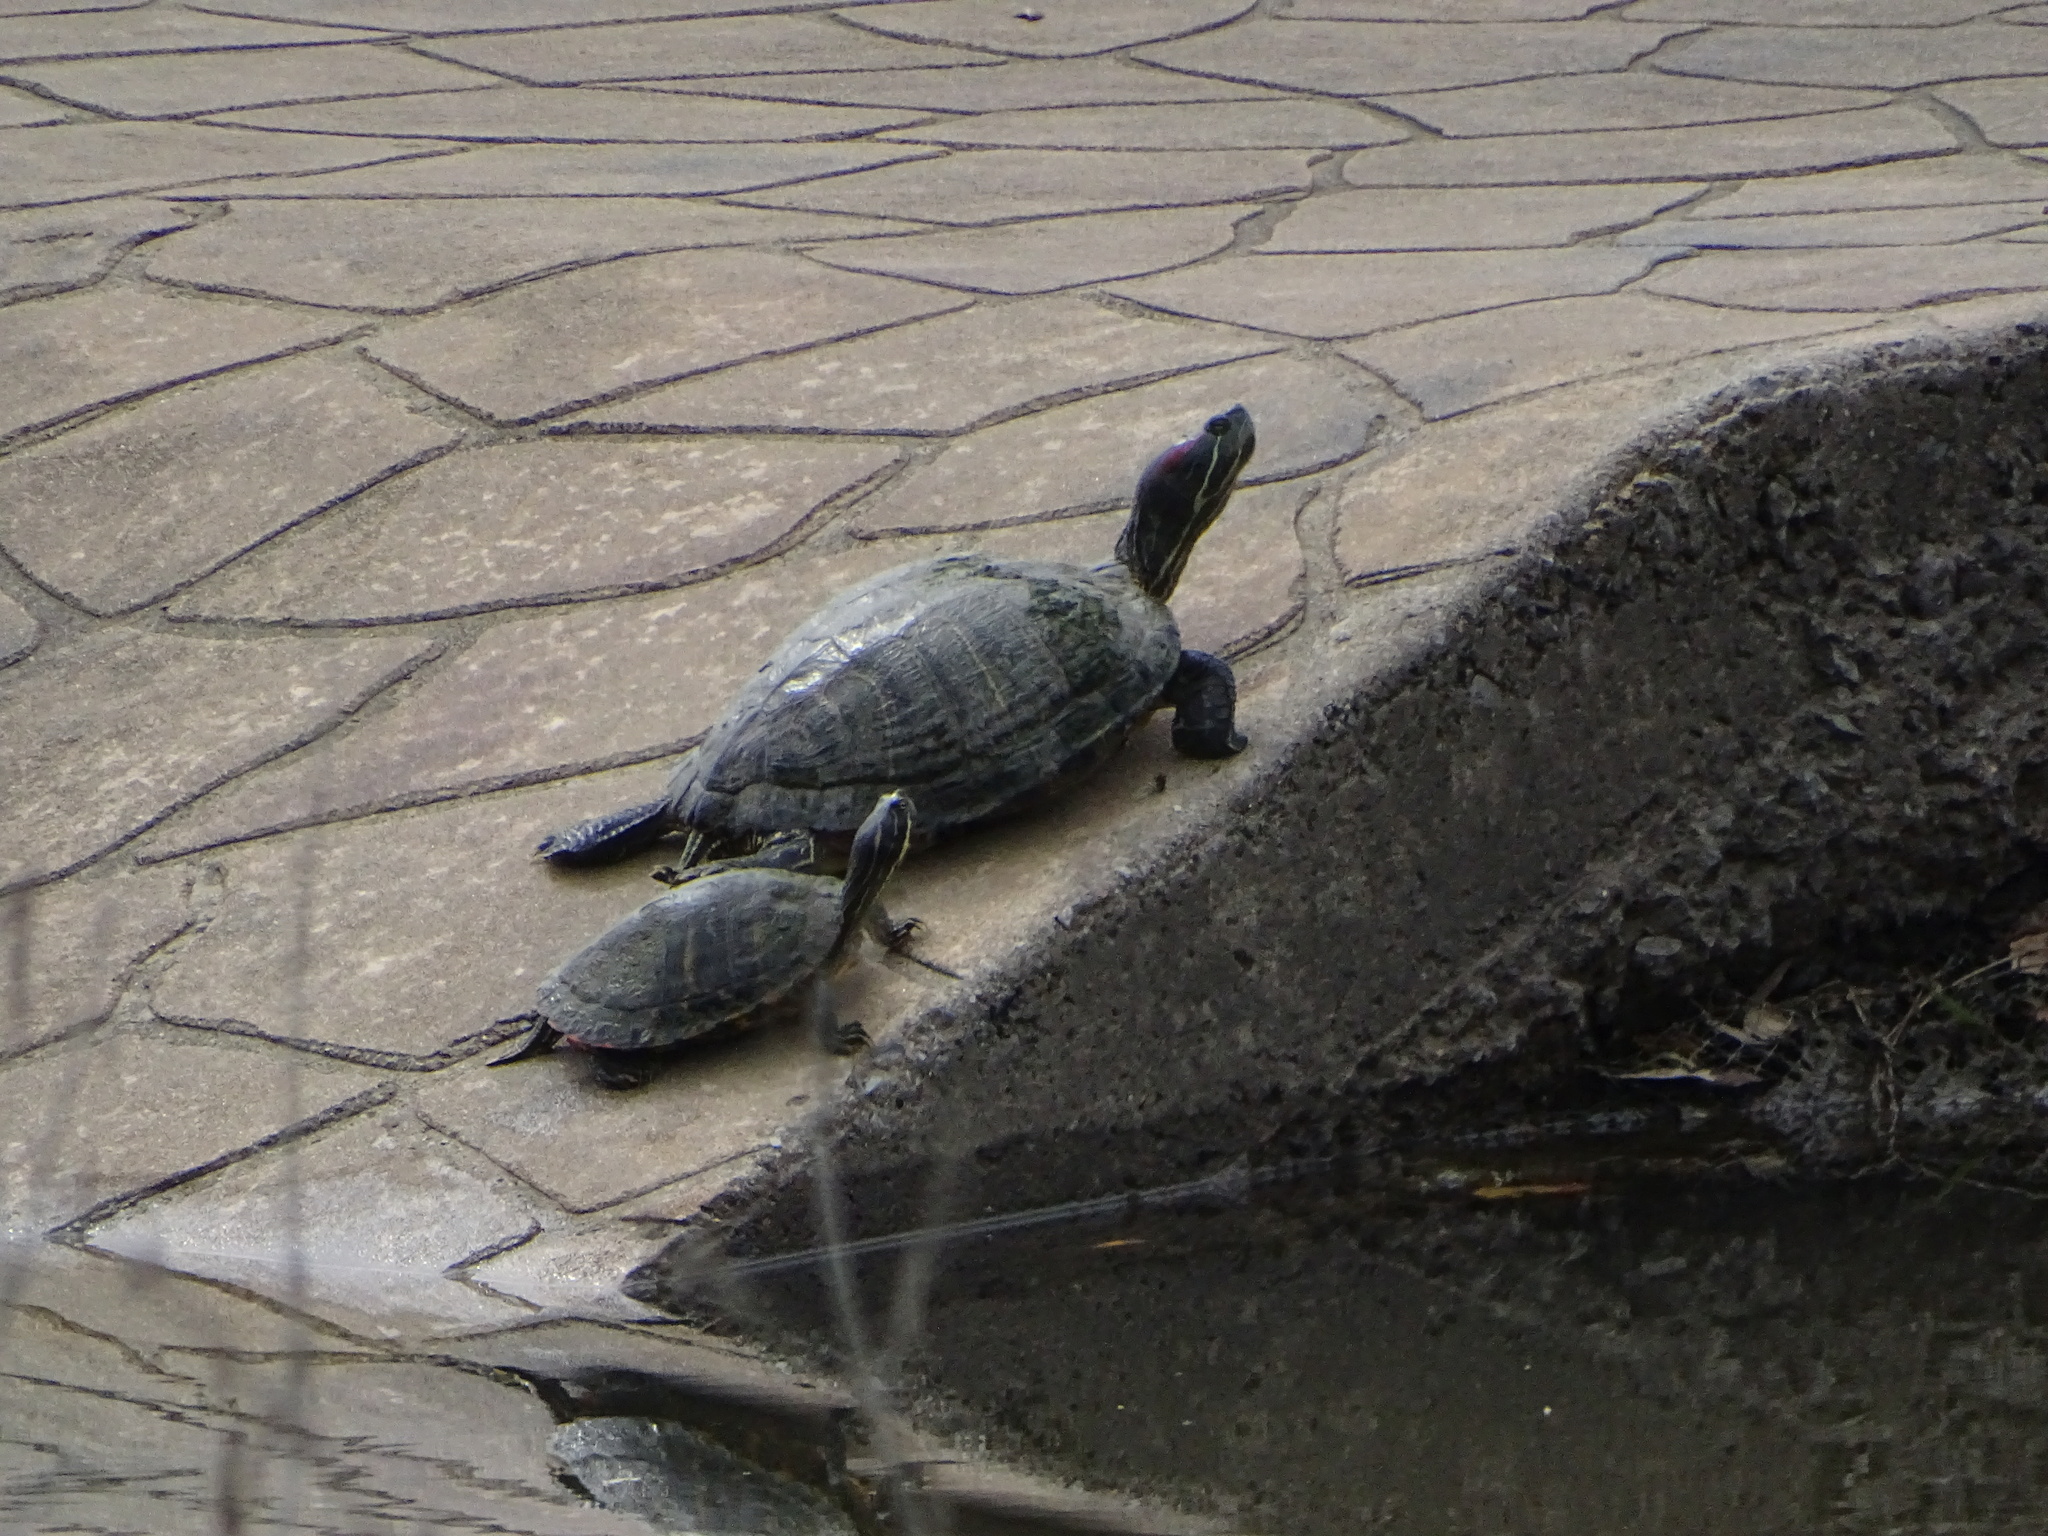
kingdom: Animalia
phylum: Chordata
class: Testudines
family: Emydidae
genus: Trachemys
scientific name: Trachemys scripta
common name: Slider
